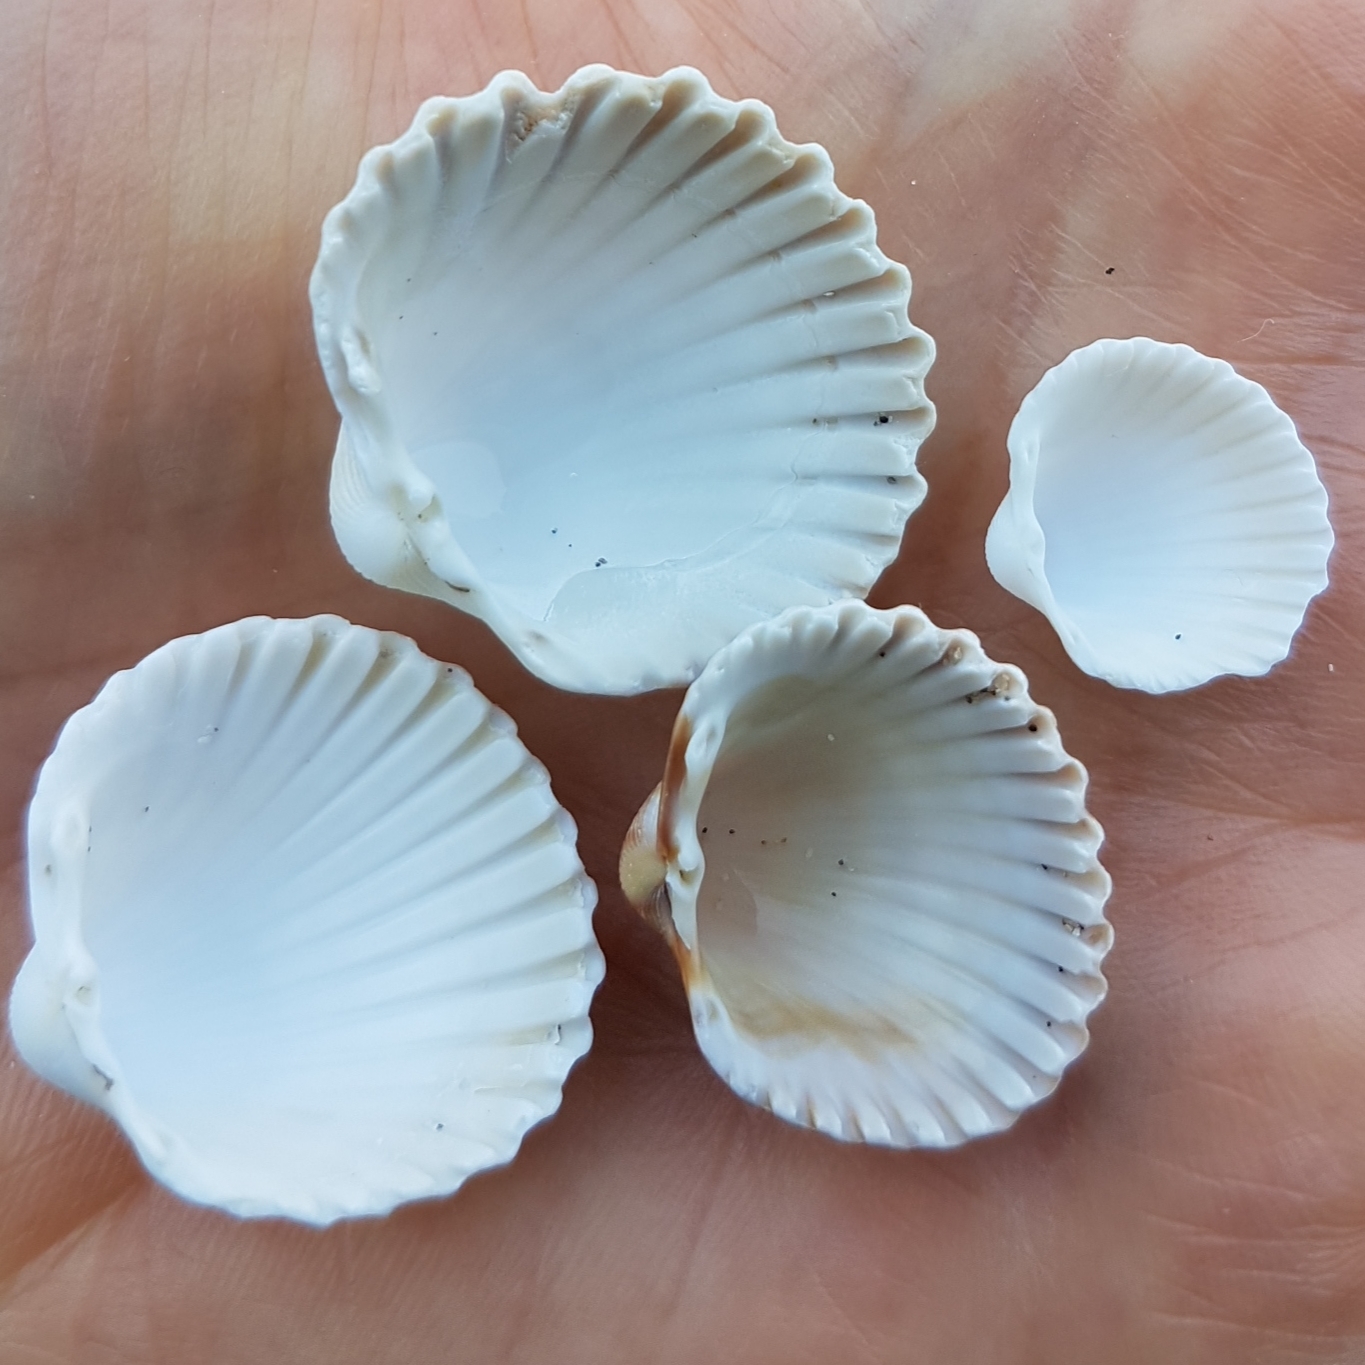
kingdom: Animalia
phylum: Mollusca
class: Bivalvia
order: Cardiida
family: Cardiidae
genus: Acanthocardia
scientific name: Acanthocardia tuberculata
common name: Rough cockle
